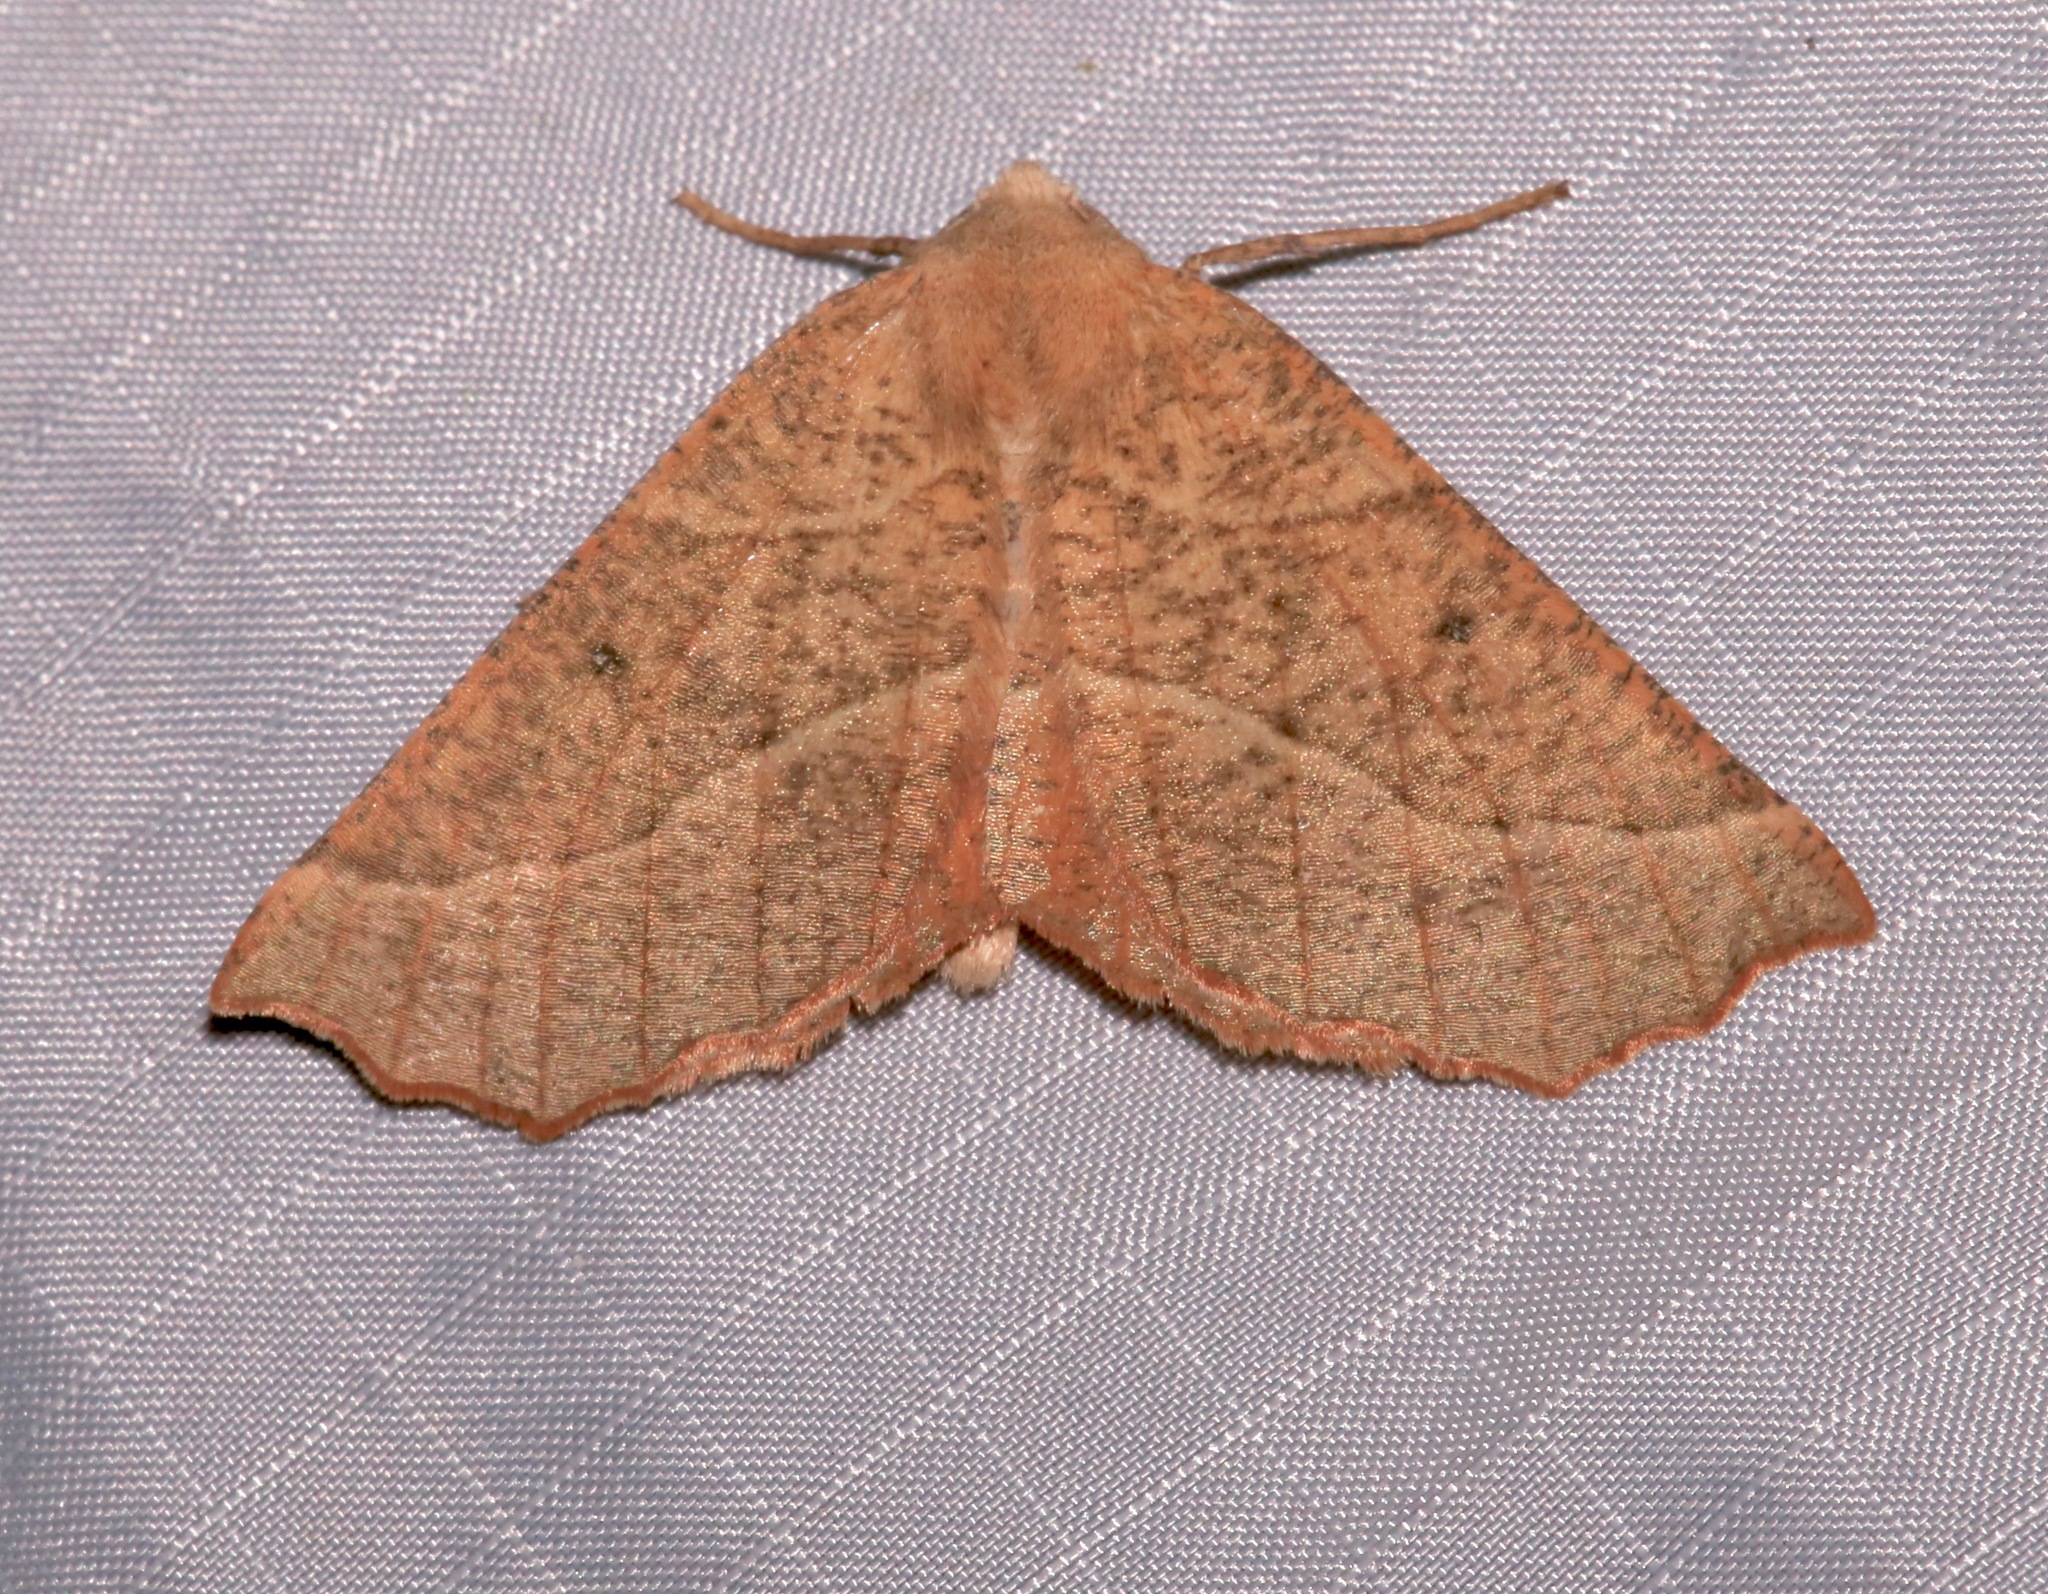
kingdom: Animalia
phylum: Arthropoda
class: Insecta
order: Lepidoptera
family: Geometridae
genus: Caripeta
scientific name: Caripeta ocellaria
